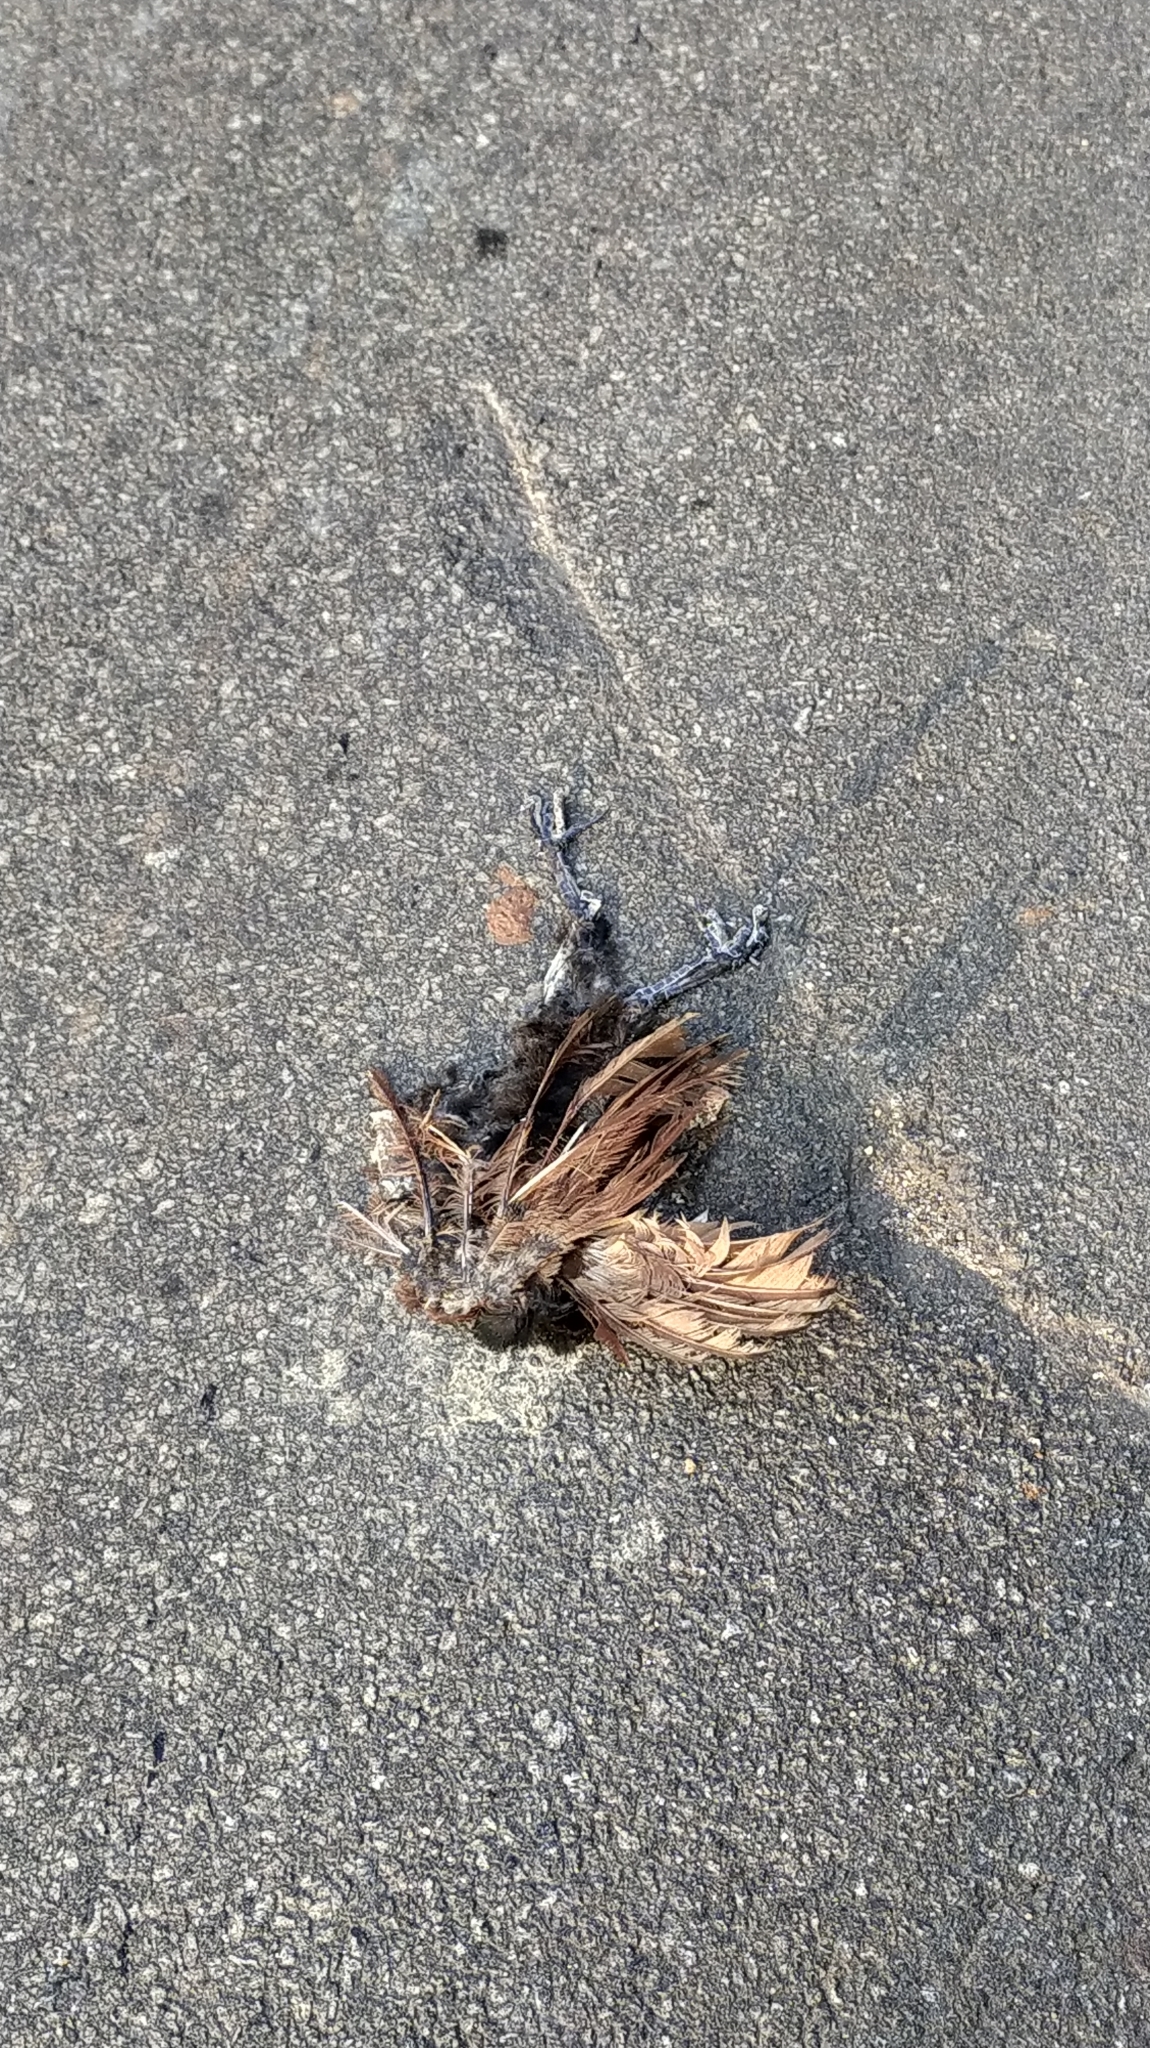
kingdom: Animalia
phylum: Chordata
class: Aves
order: Cuculiformes
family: Cuculidae
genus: Centropus
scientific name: Centropus sinensis
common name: Greater coucal
